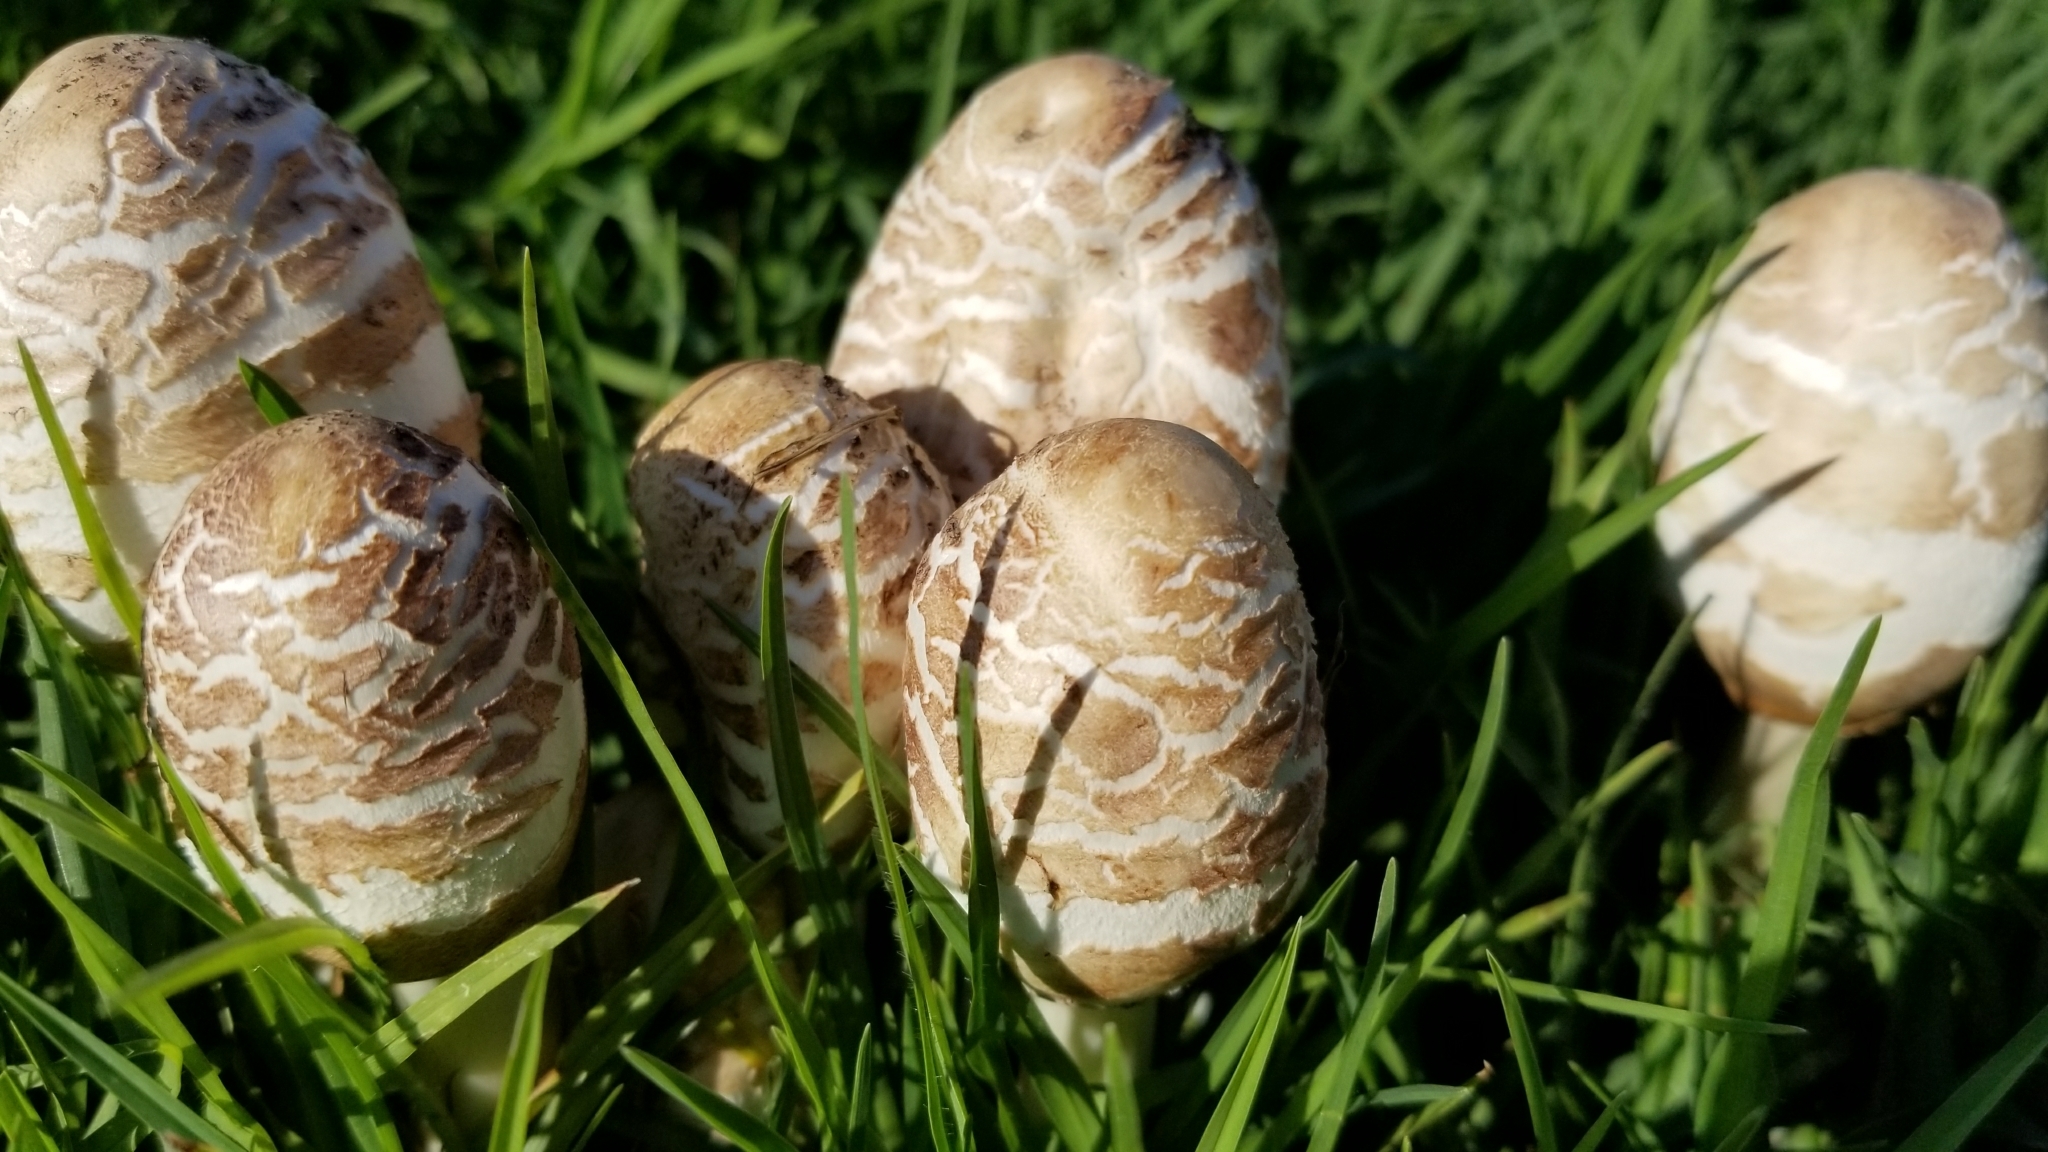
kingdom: Fungi
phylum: Basidiomycota
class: Agaricomycetes
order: Agaricales
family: Agaricaceae
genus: Chlorophyllum
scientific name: Chlorophyllum molybdites
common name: False parasol
